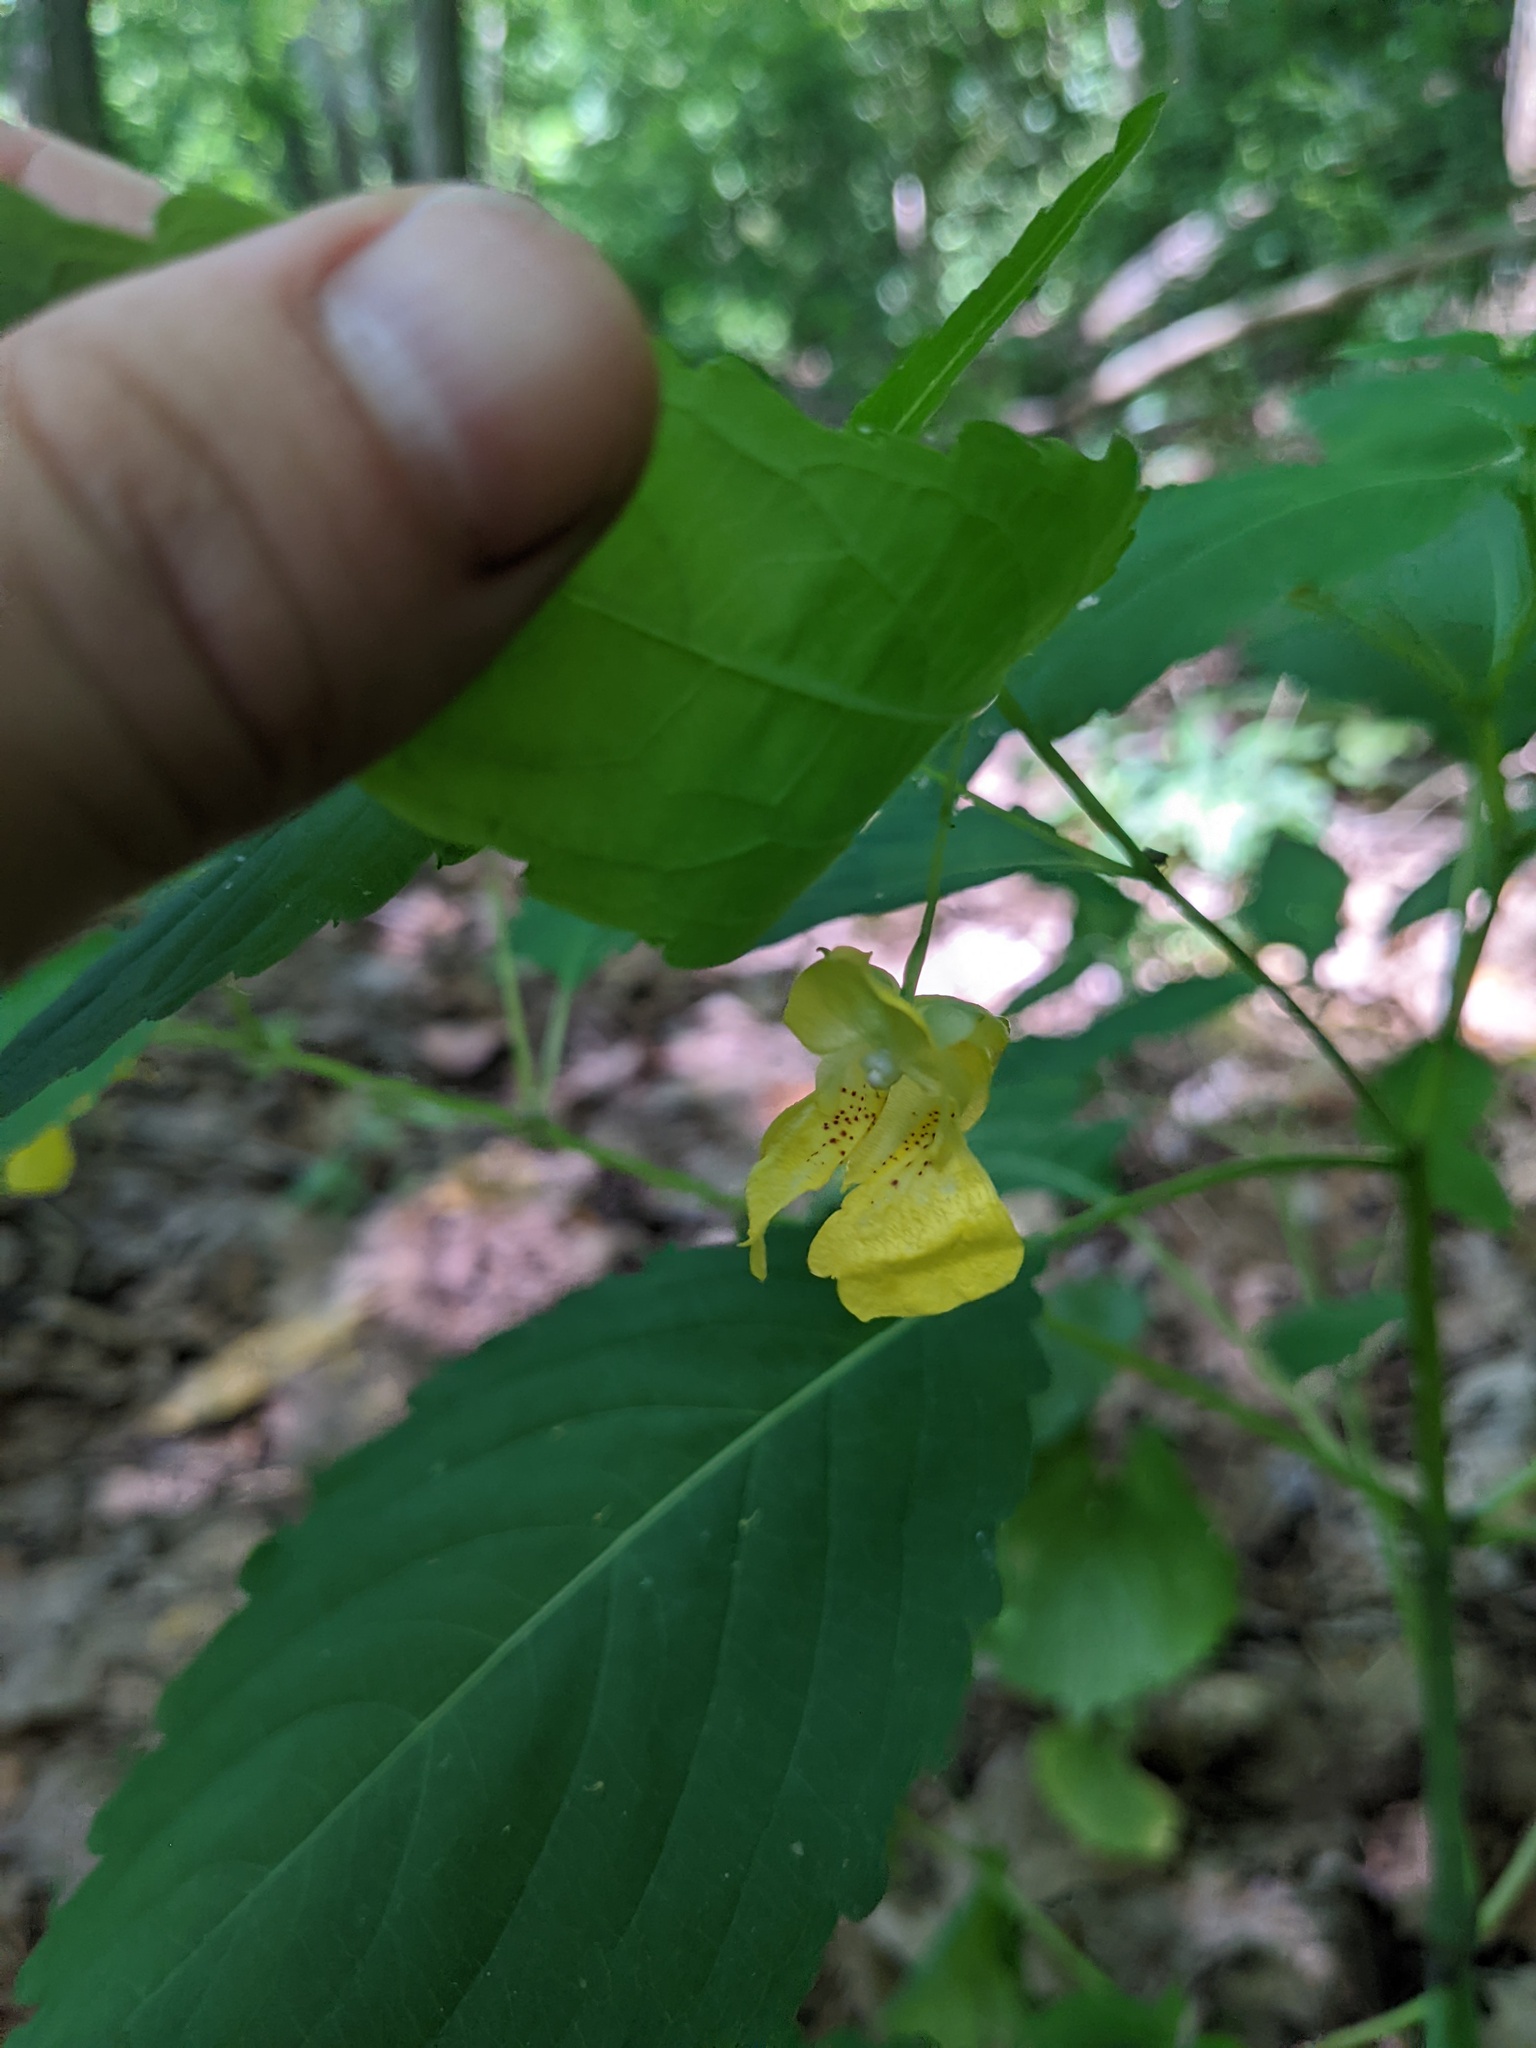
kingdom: Plantae
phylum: Tracheophyta
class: Magnoliopsida
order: Ericales
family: Balsaminaceae
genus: Impatiens
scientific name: Impatiens pallida
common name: Pale snapweed
